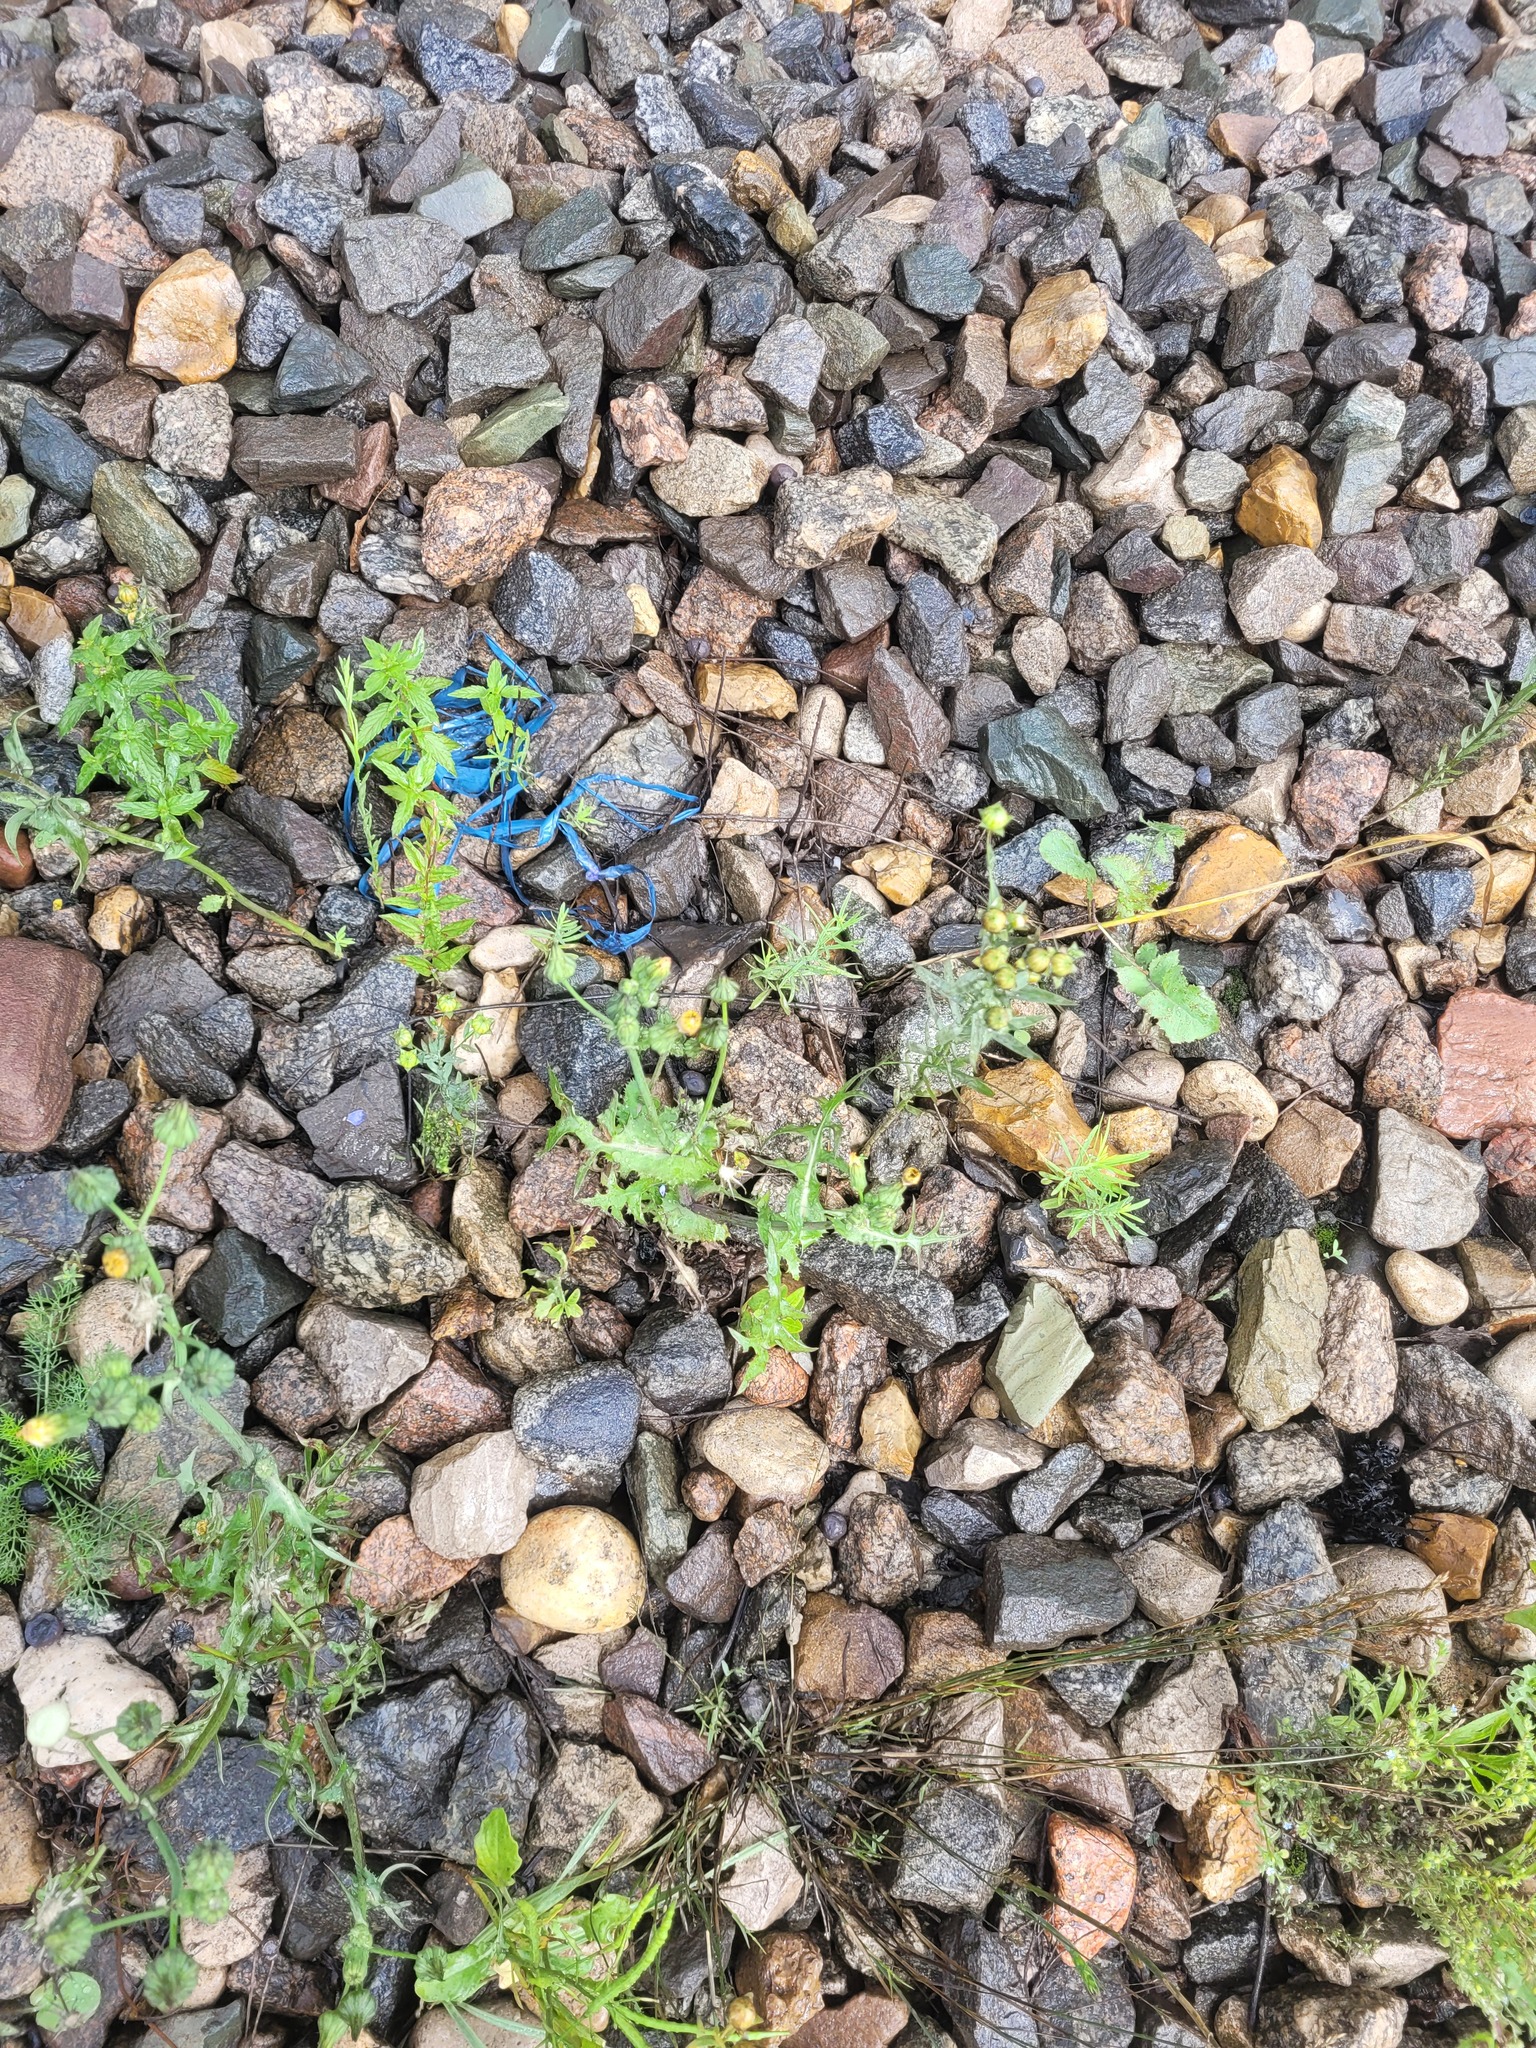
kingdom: Plantae
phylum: Tracheophyta
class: Magnoliopsida
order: Asterales
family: Asteraceae
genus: Sonchus
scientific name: Sonchus oleraceus
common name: Common sowthistle
